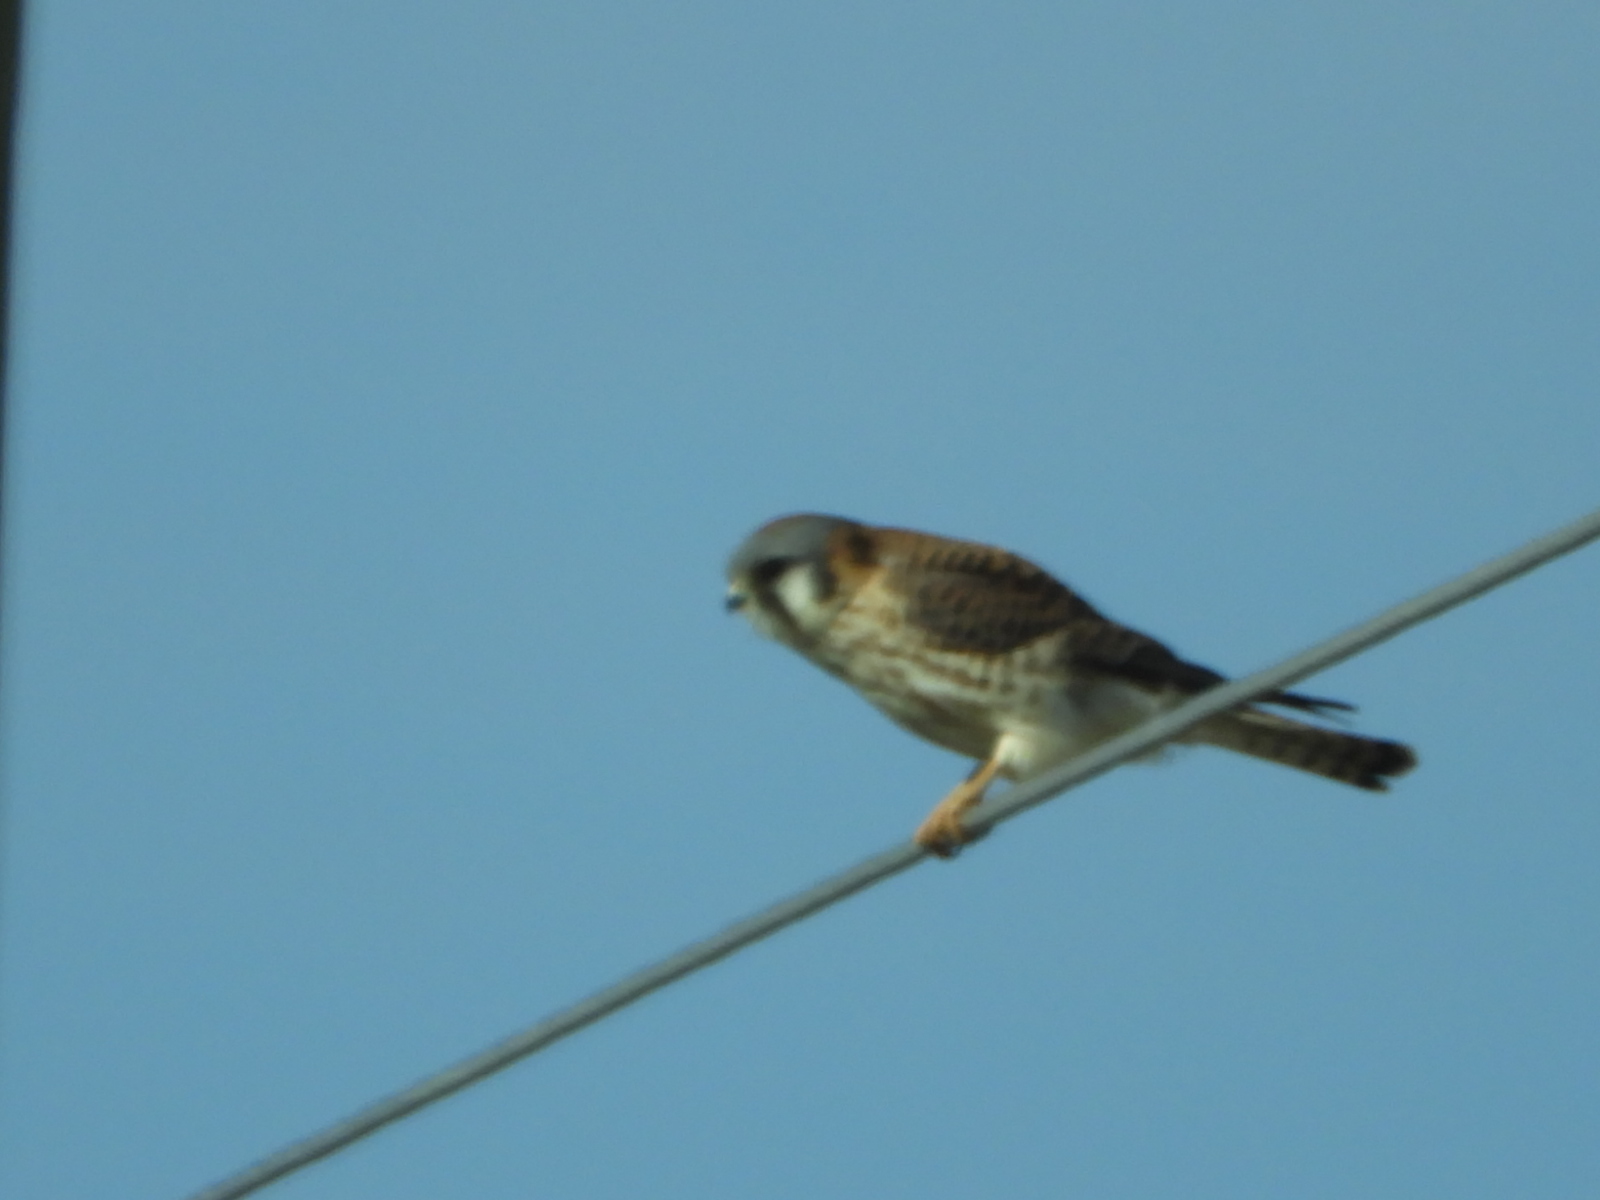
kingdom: Animalia
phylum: Chordata
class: Aves
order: Falconiformes
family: Falconidae
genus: Falco
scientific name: Falco sparverius
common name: American kestrel
